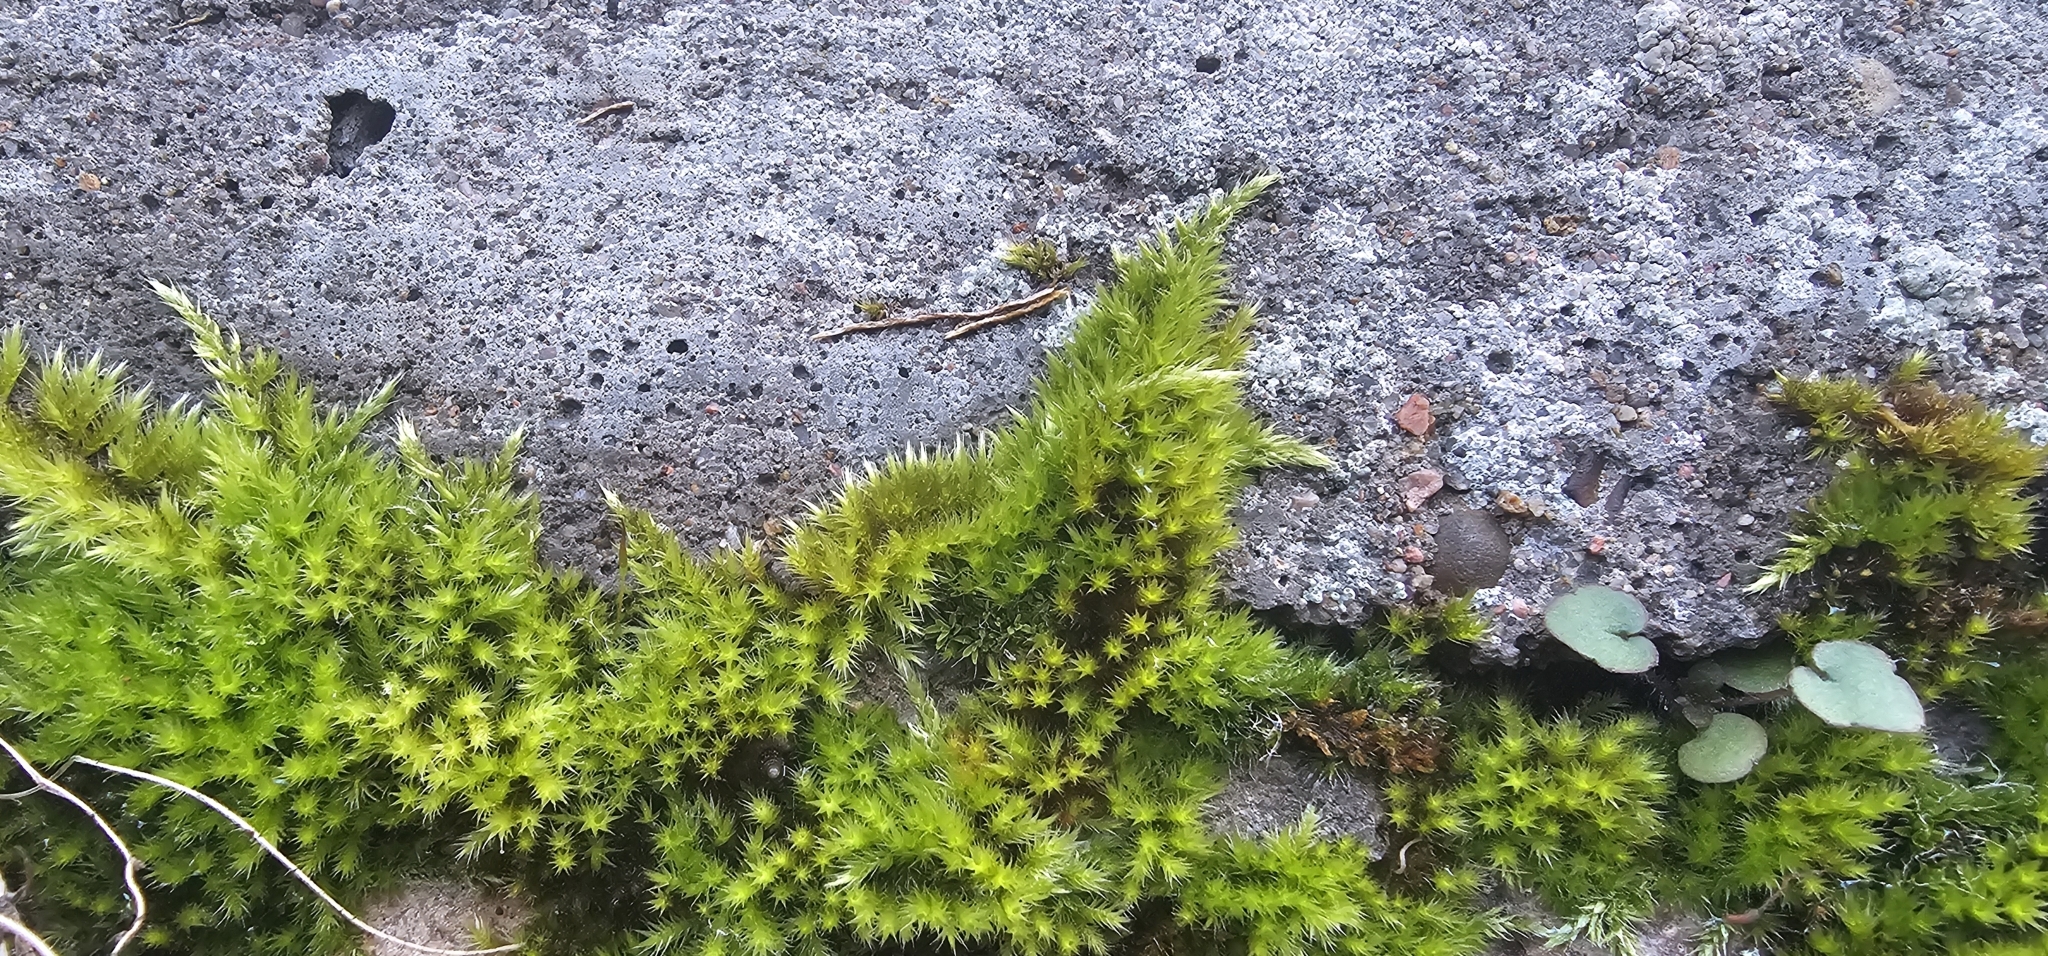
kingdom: Plantae
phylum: Bryophyta
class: Bryopsida
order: Hypnales
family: Brachytheciaceae
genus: Homalothecium
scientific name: Homalothecium sericeum
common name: Silky wall feather-moss
